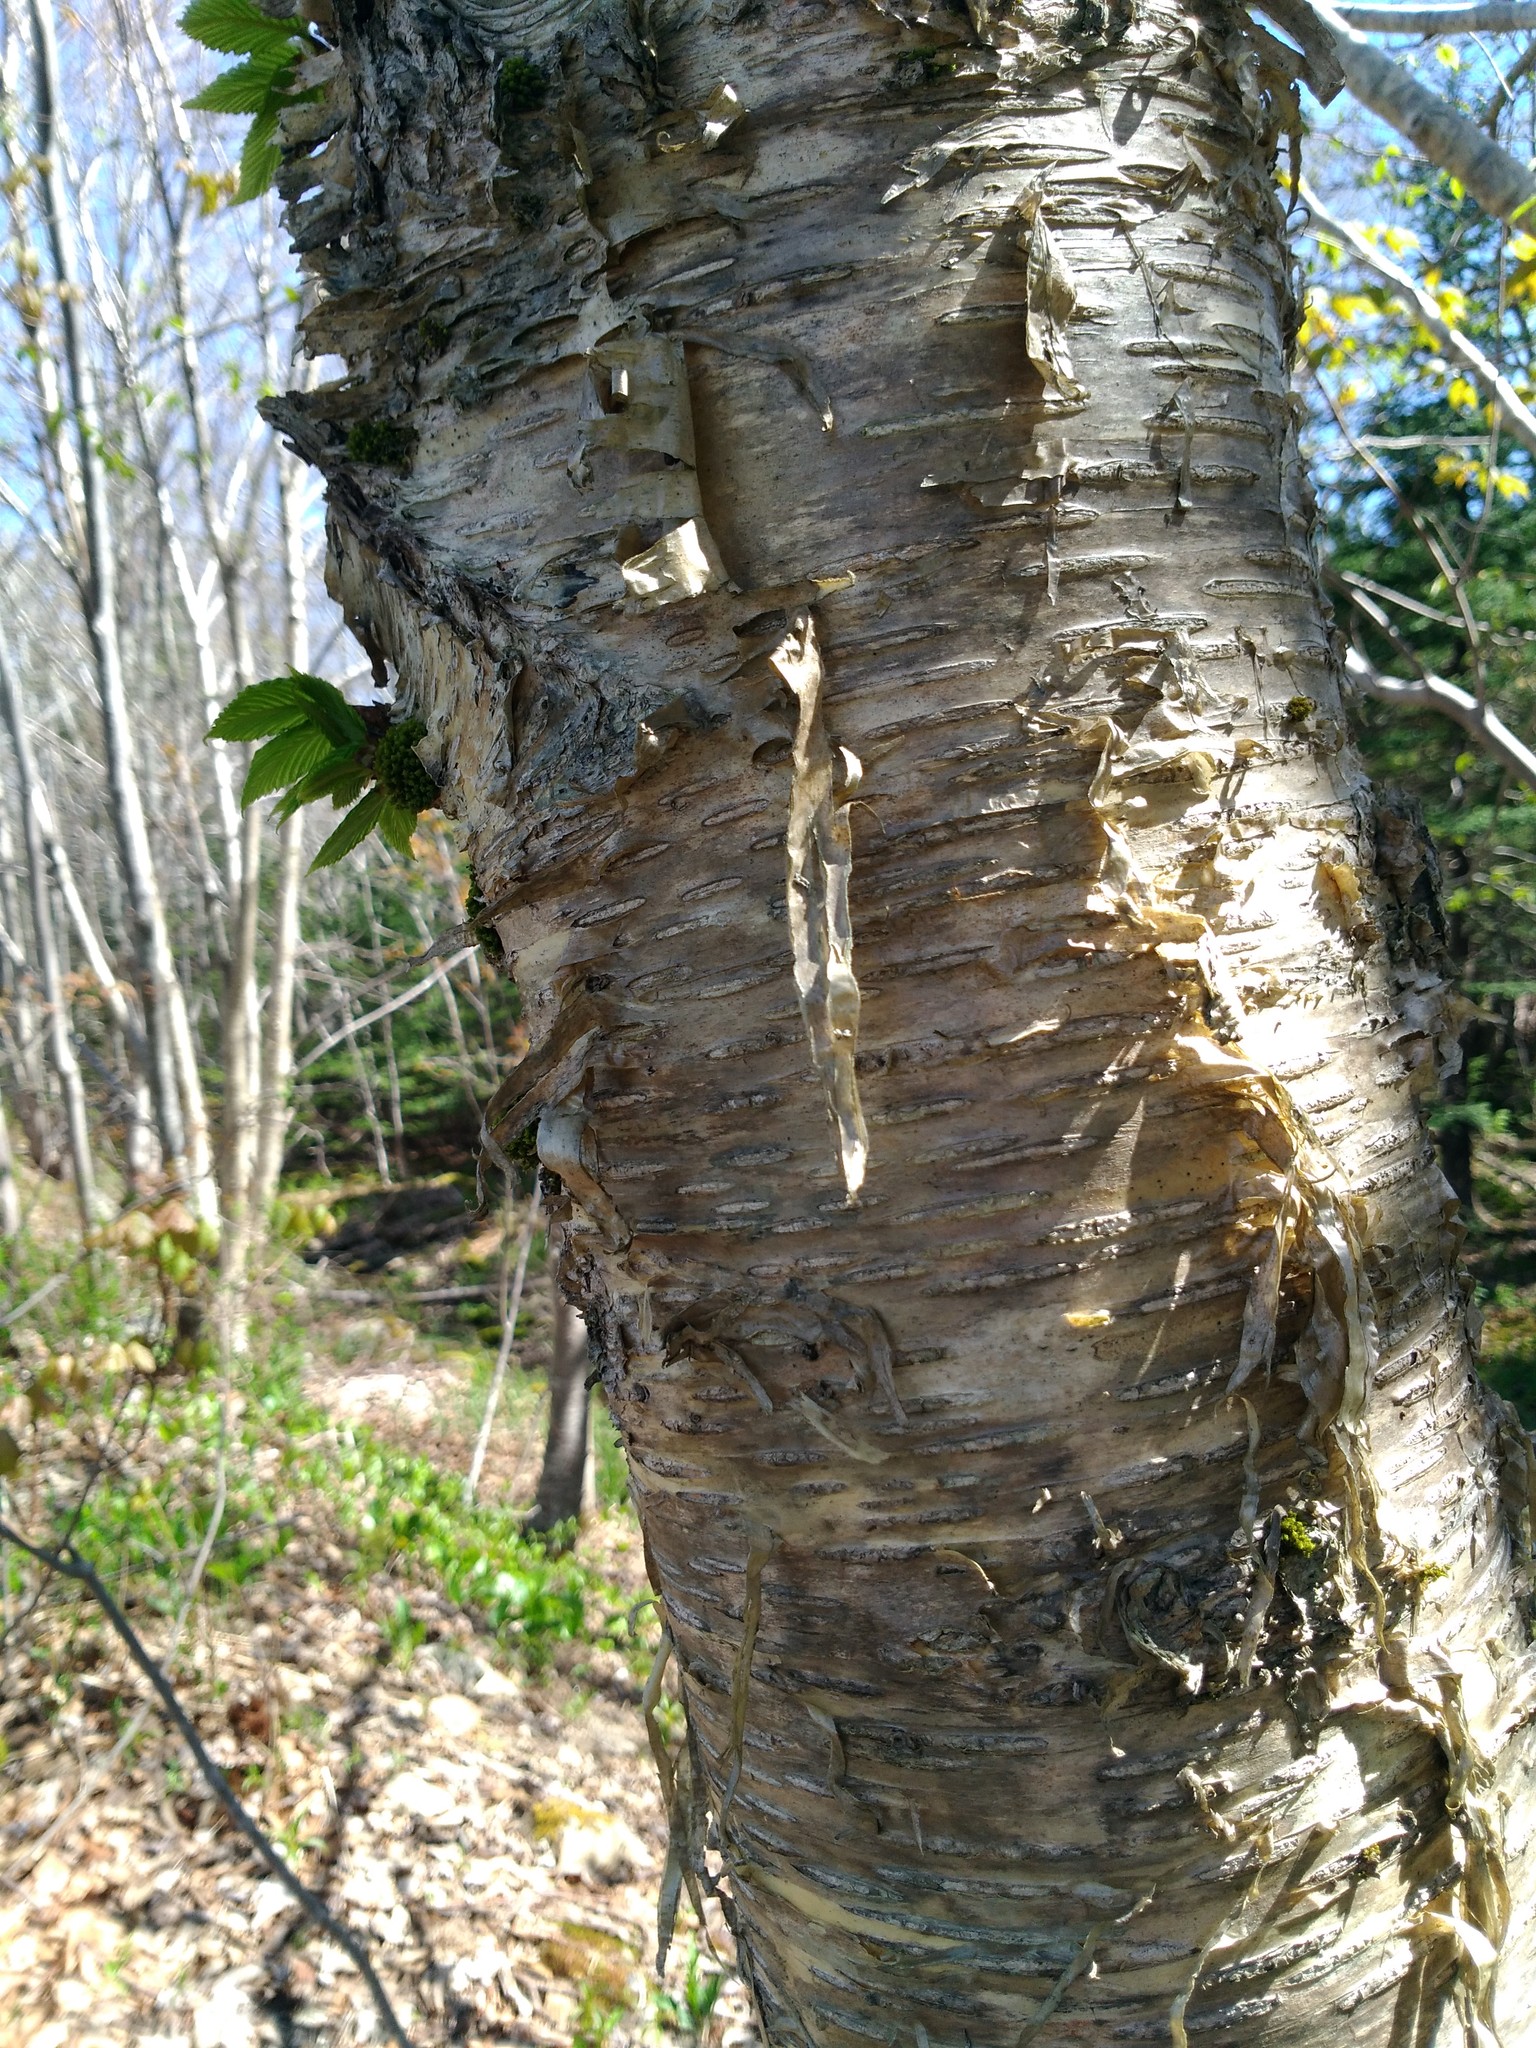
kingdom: Plantae
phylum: Tracheophyta
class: Magnoliopsida
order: Fagales
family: Betulaceae
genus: Betula
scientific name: Betula alleghaniensis
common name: Yellow birch
